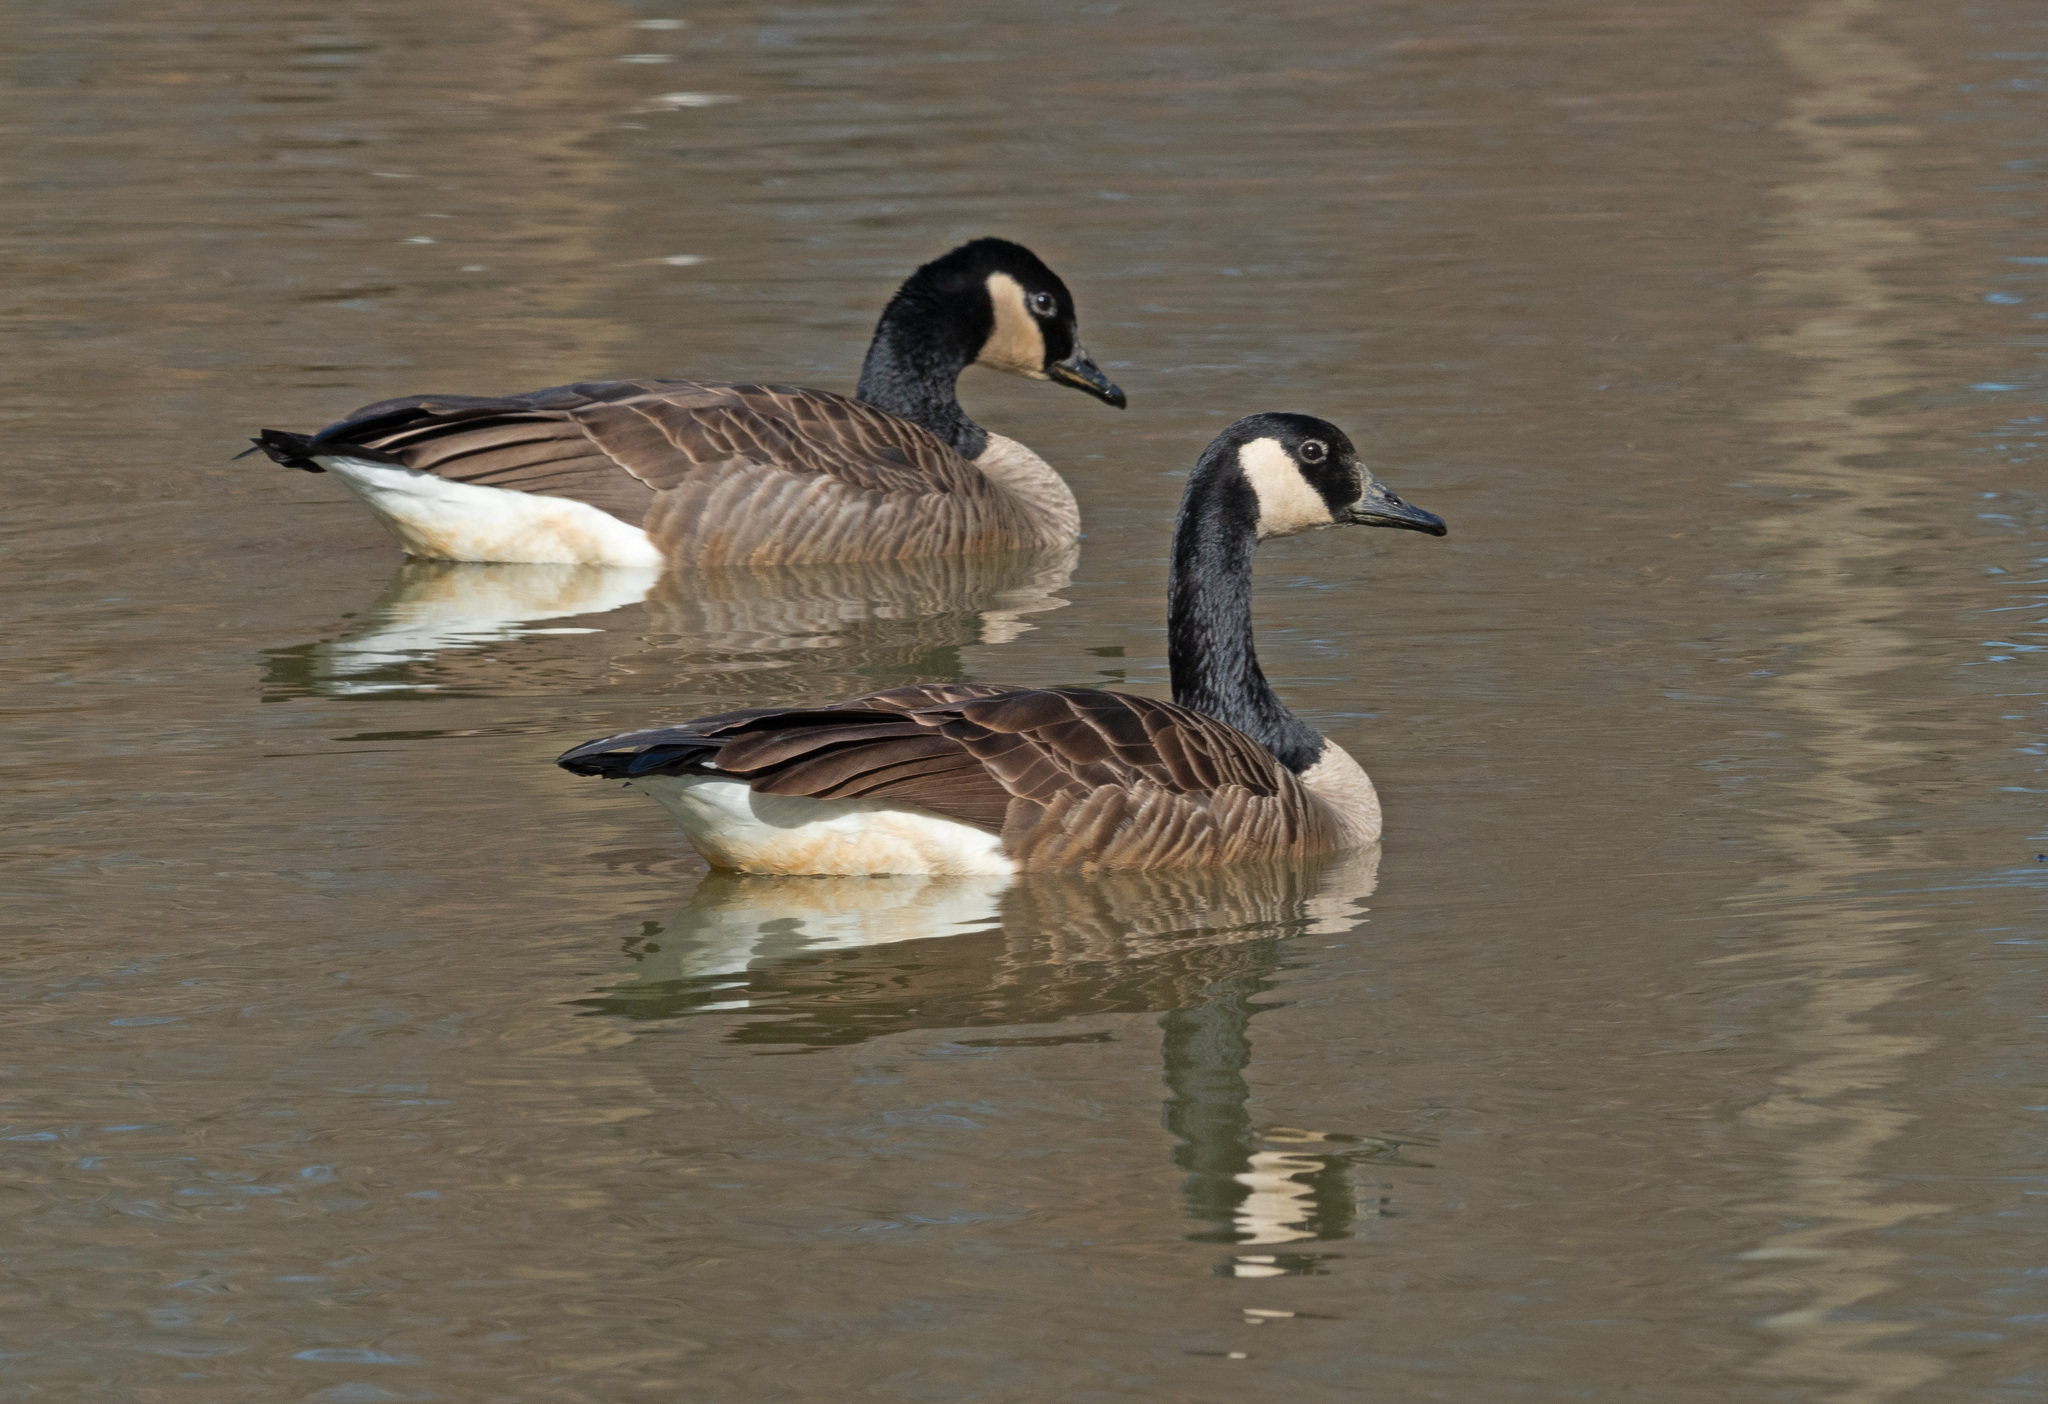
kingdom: Animalia
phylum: Chordata
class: Aves
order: Anseriformes
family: Anatidae
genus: Branta
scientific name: Branta canadensis
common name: Canada goose
